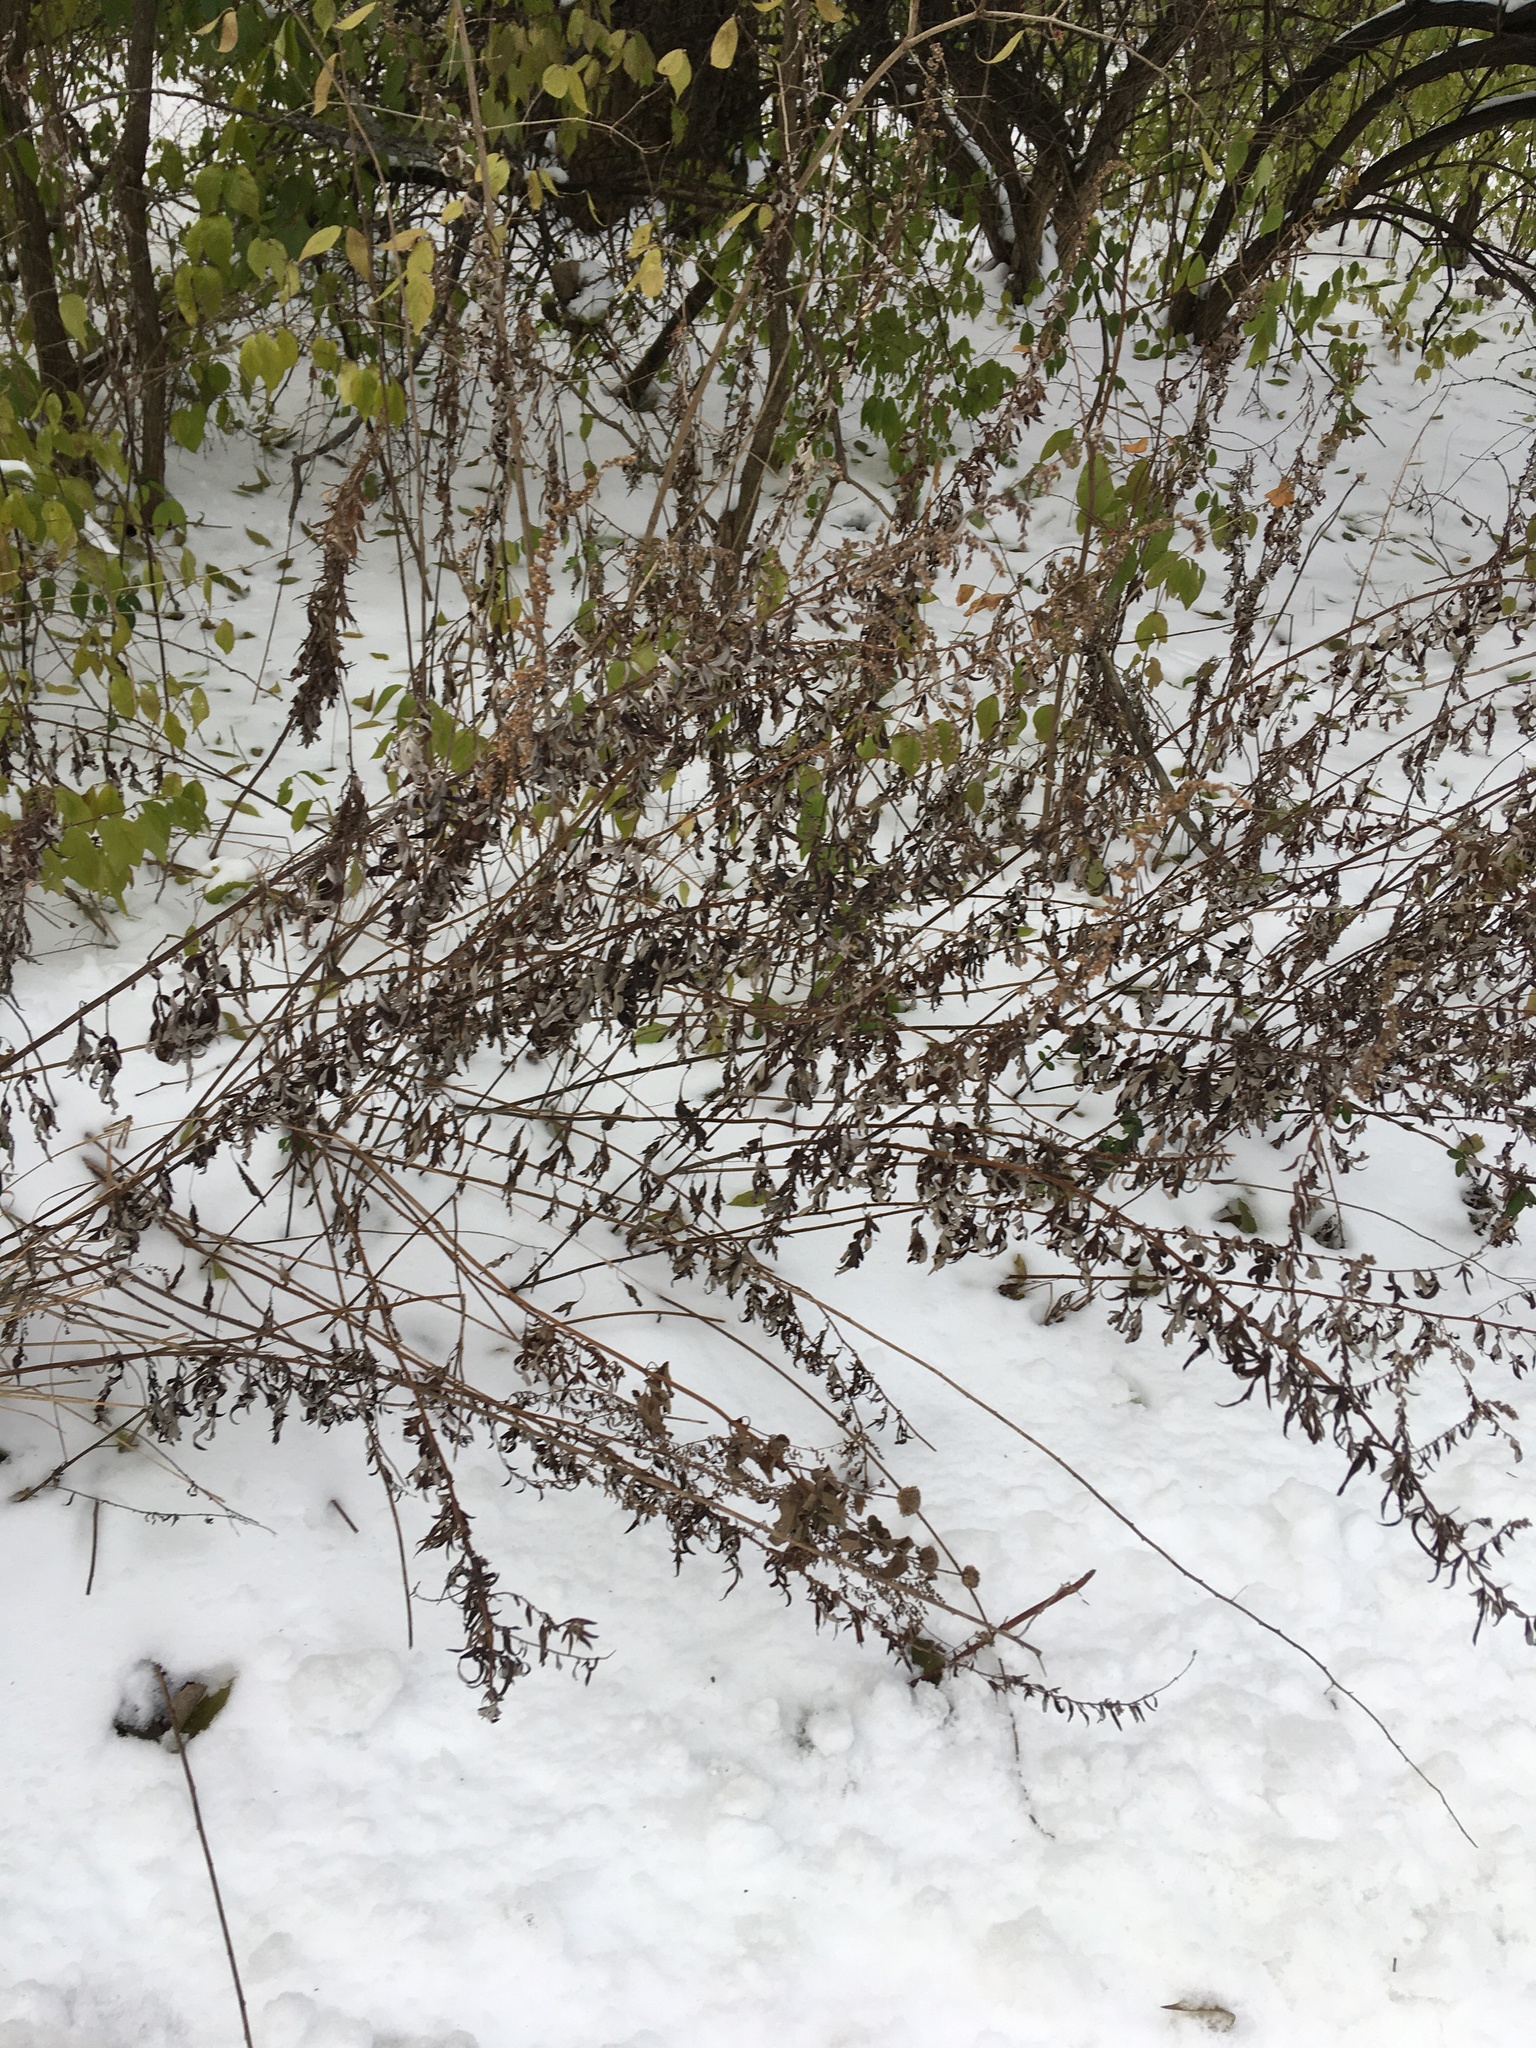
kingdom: Plantae
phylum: Tracheophyta
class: Magnoliopsida
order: Asterales
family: Asteraceae
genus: Artemisia
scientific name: Artemisia vulgaris
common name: Mugwort
